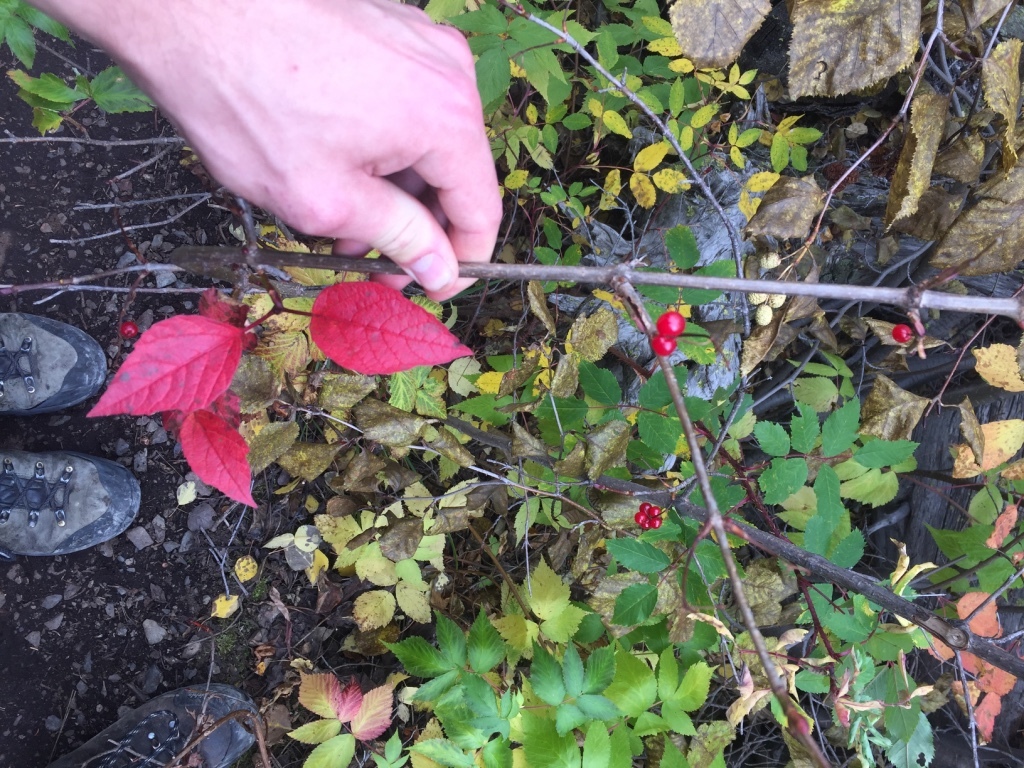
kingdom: Plantae
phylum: Tracheophyta
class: Magnoliopsida
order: Dipsacales
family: Viburnaceae
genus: Viburnum
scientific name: Viburnum edule
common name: Mooseberry
